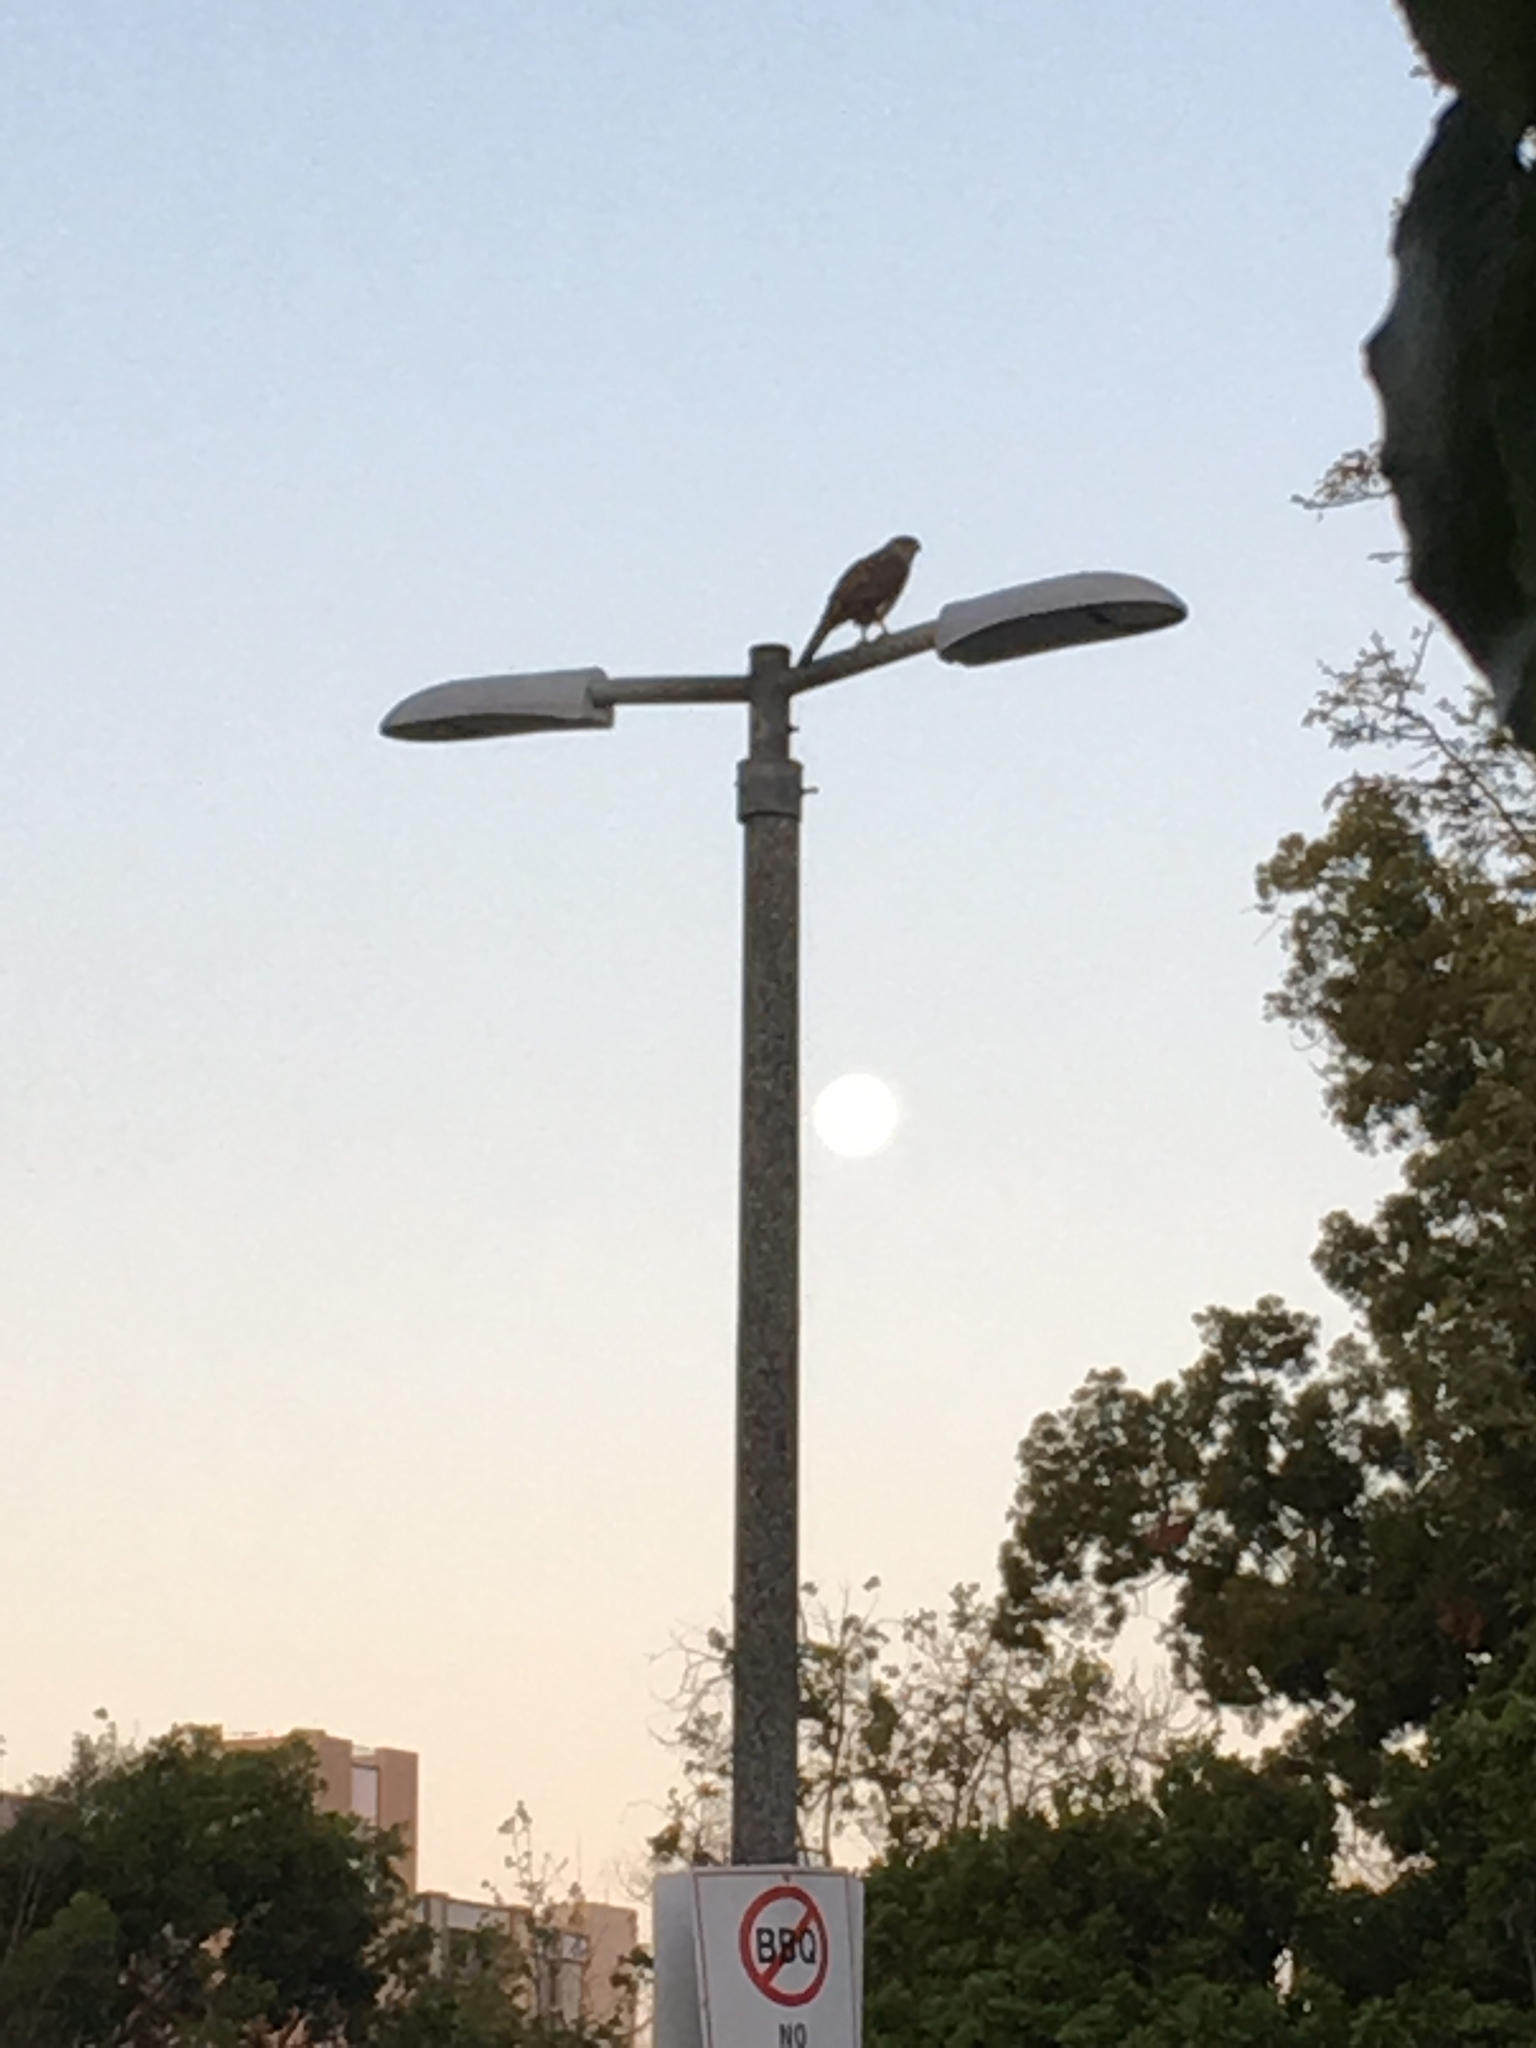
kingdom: Animalia
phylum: Chordata
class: Aves
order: Accipitriformes
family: Accipitridae
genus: Accipiter
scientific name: Accipiter cooperii
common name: Cooper's hawk
